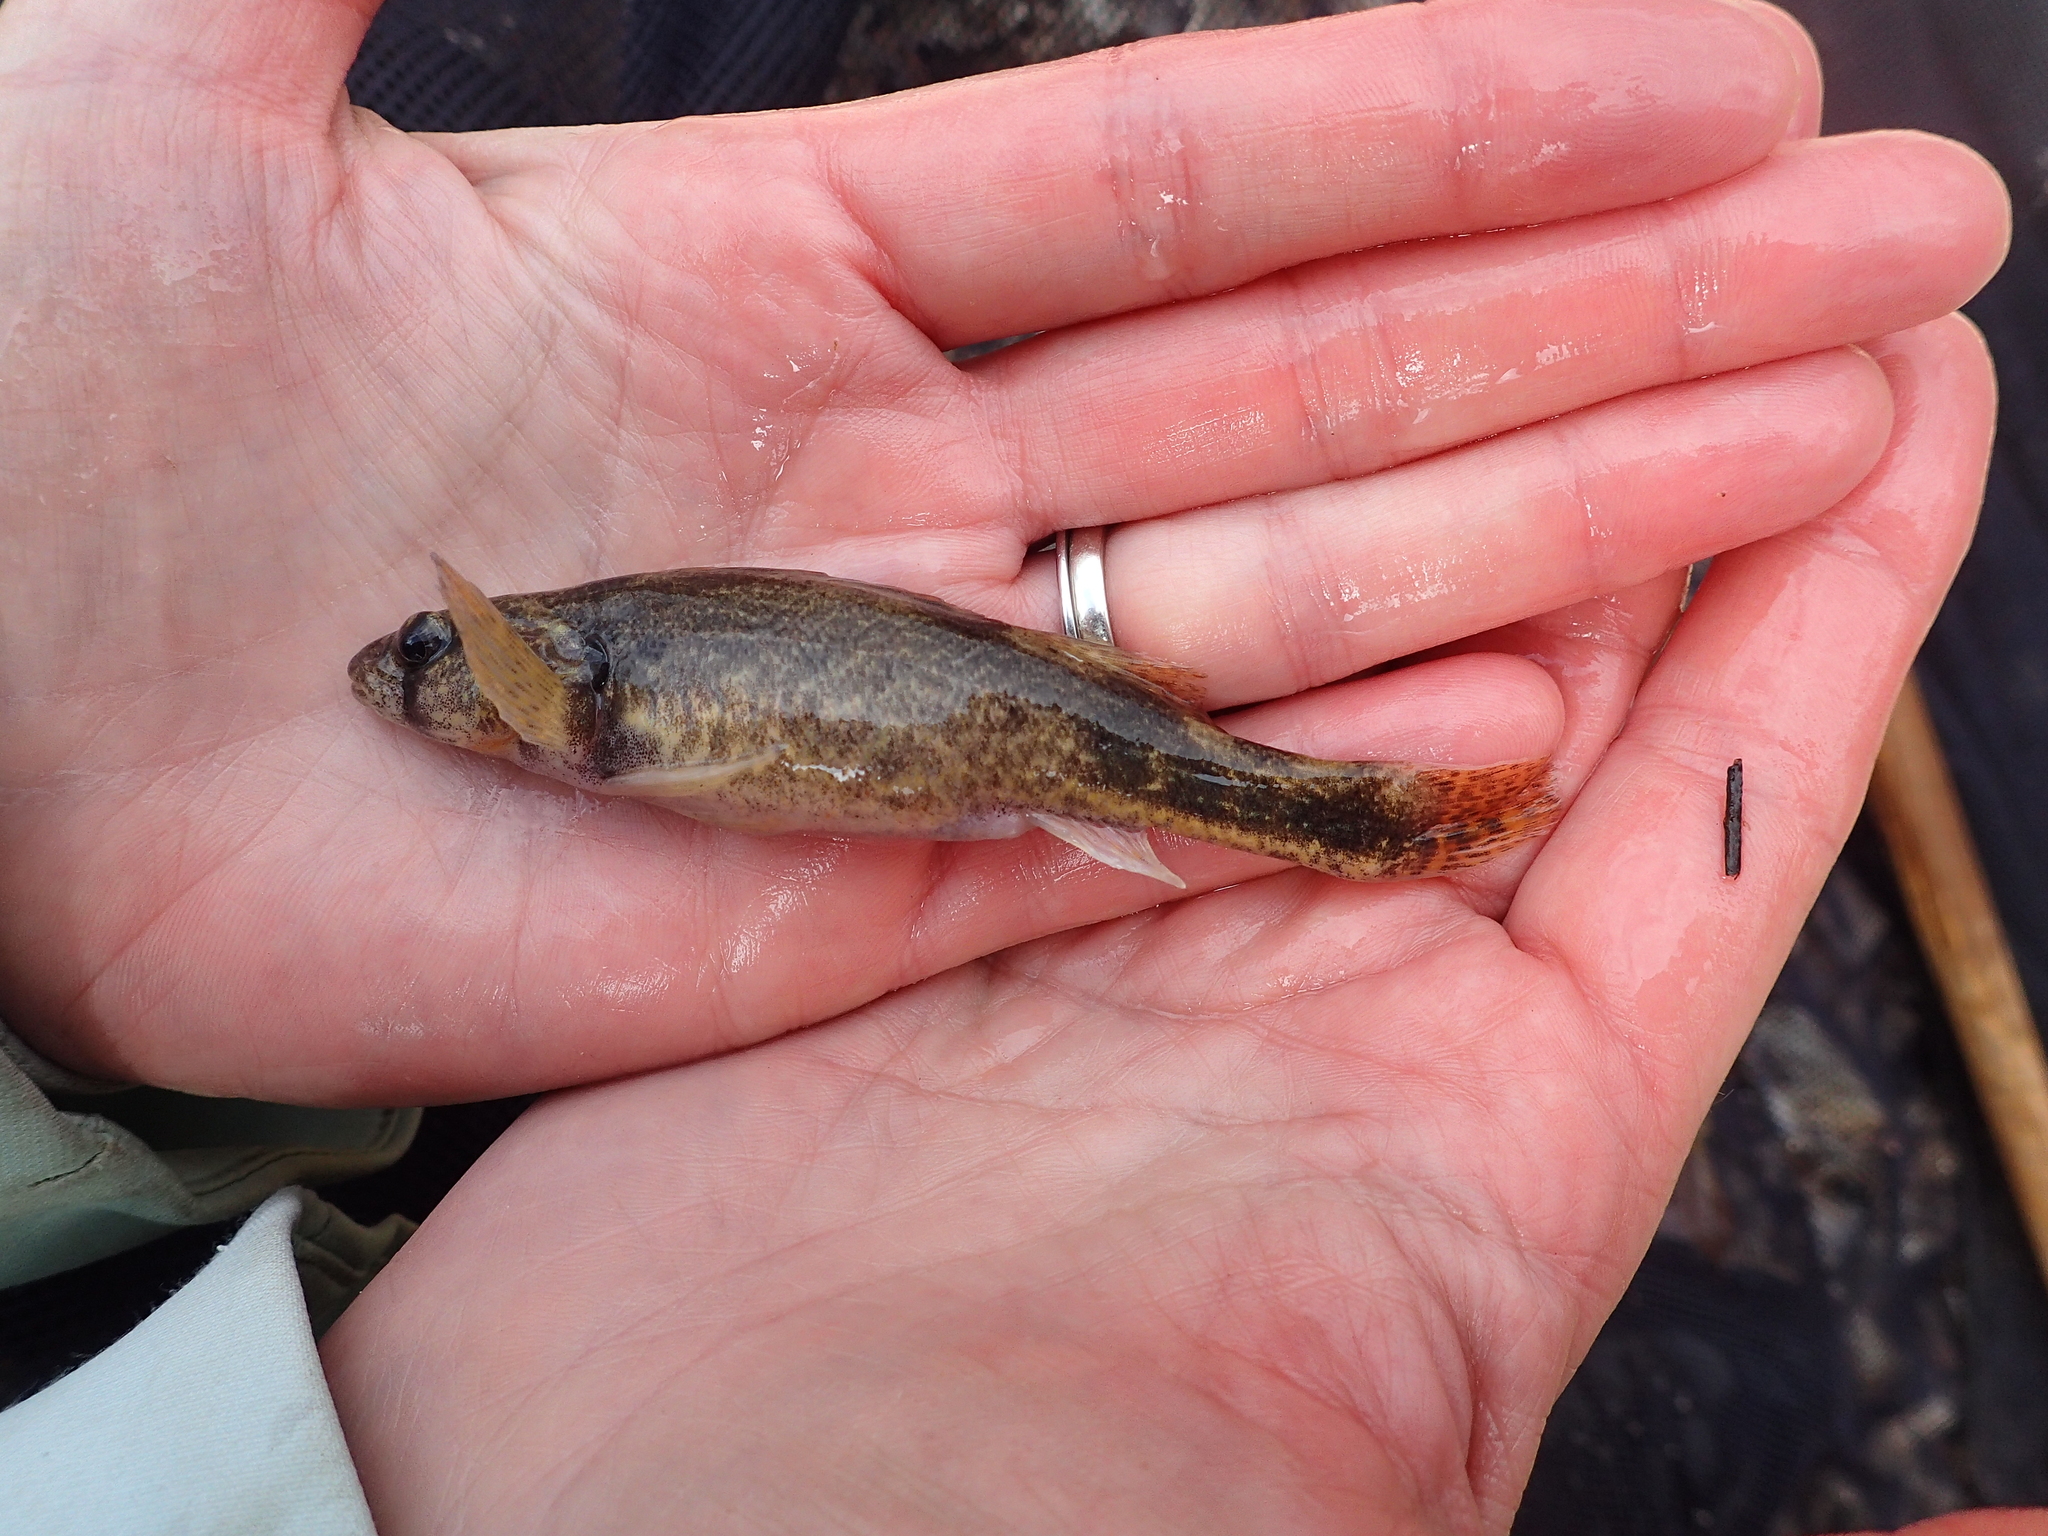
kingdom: Animalia
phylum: Chordata
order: Perciformes
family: Percidae
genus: Etheostoma
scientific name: Etheostoma punctulatum
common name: Stippled darter
